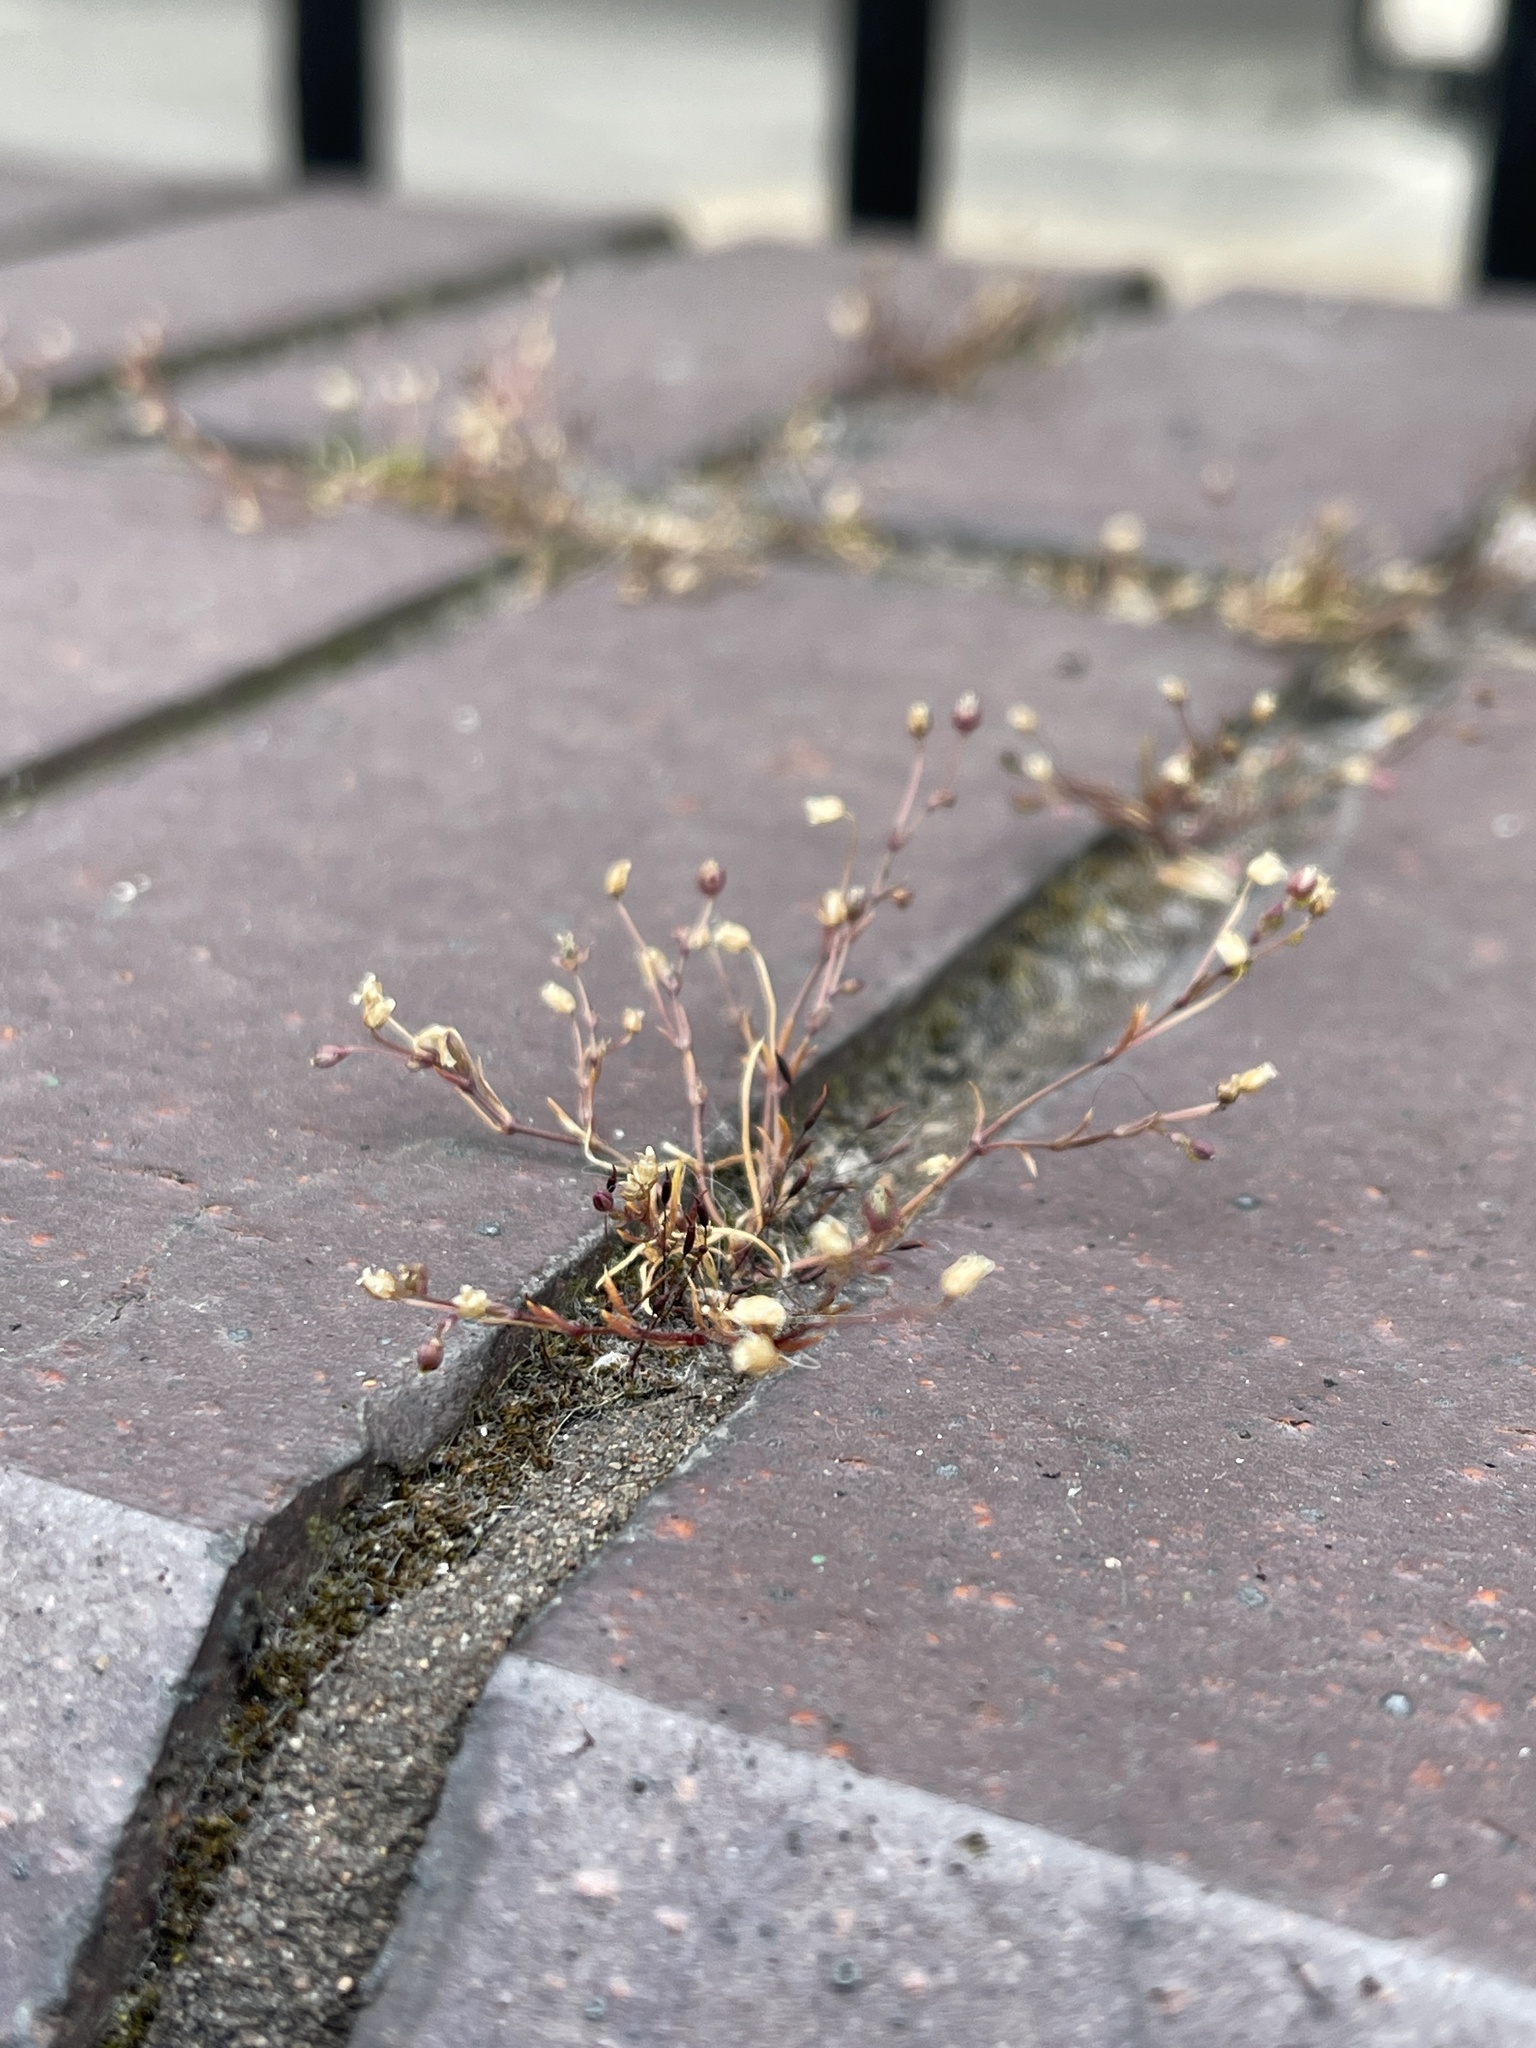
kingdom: Plantae
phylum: Tracheophyta
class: Magnoliopsida
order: Caryophyllales
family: Caryophyllaceae
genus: Sagina
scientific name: Sagina apetala
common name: Annual pearlwort
